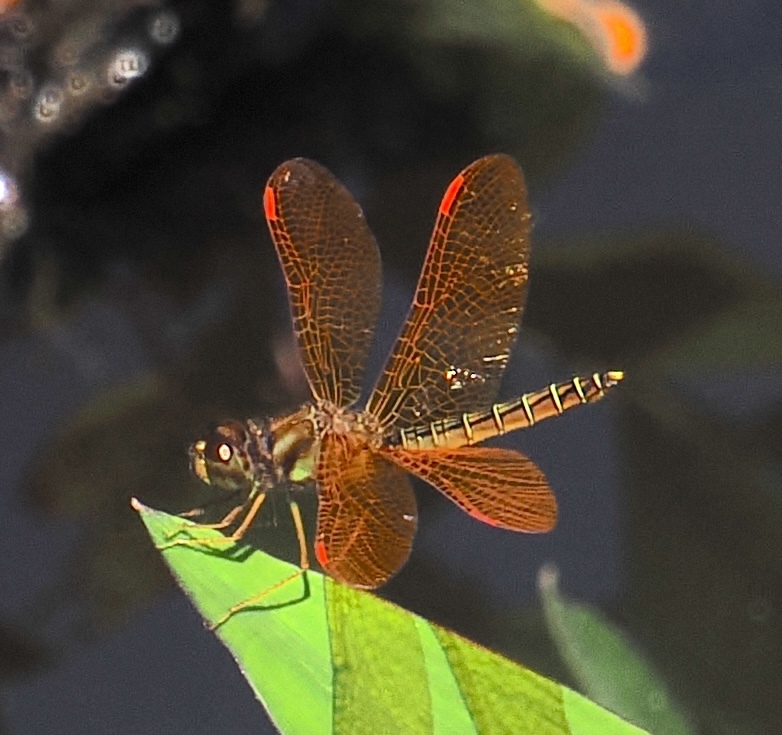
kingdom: Animalia
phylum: Arthropoda
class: Insecta
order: Odonata
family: Libellulidae
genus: Perithemis
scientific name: Perithemis tenera
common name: Eastern amberwing
